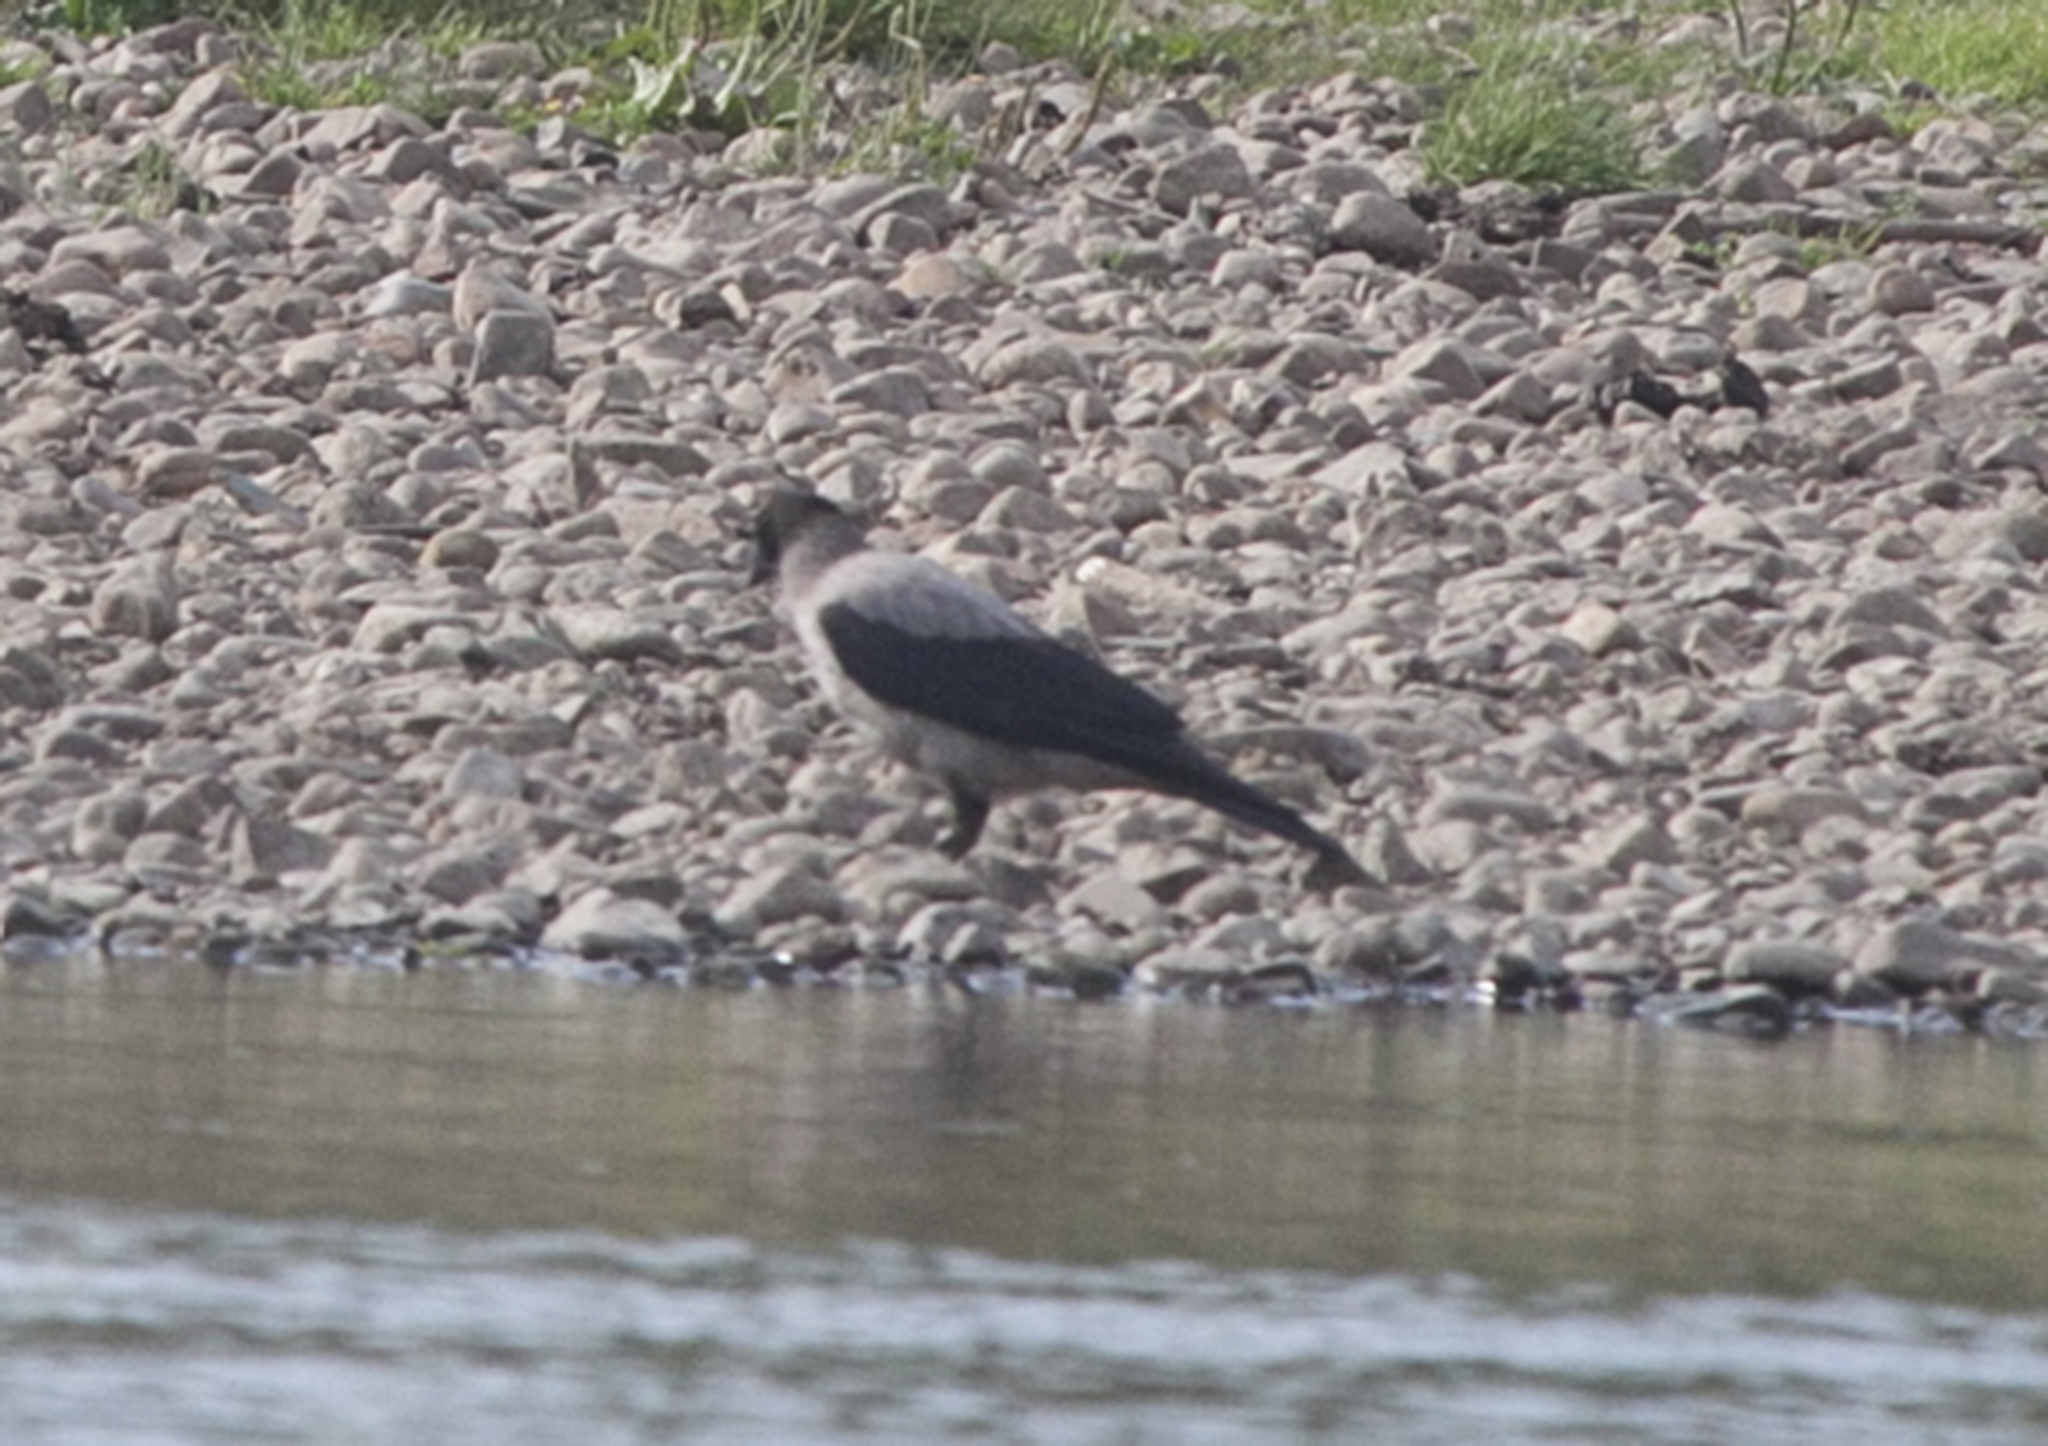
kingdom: Animalia
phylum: Chordata
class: Aves
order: Passeriformes
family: Corvidae
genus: Corvus
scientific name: Corvus cornix
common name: Hooded crow
